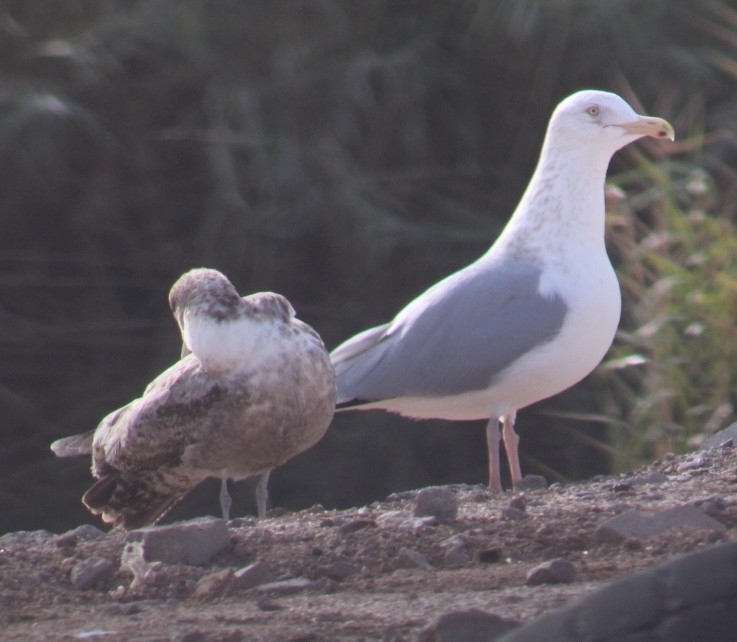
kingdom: Animalia
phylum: Chordata
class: Aves
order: Charadriiformes
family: Laridae
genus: Larus
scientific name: Larus argentatus
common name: Herring gull
